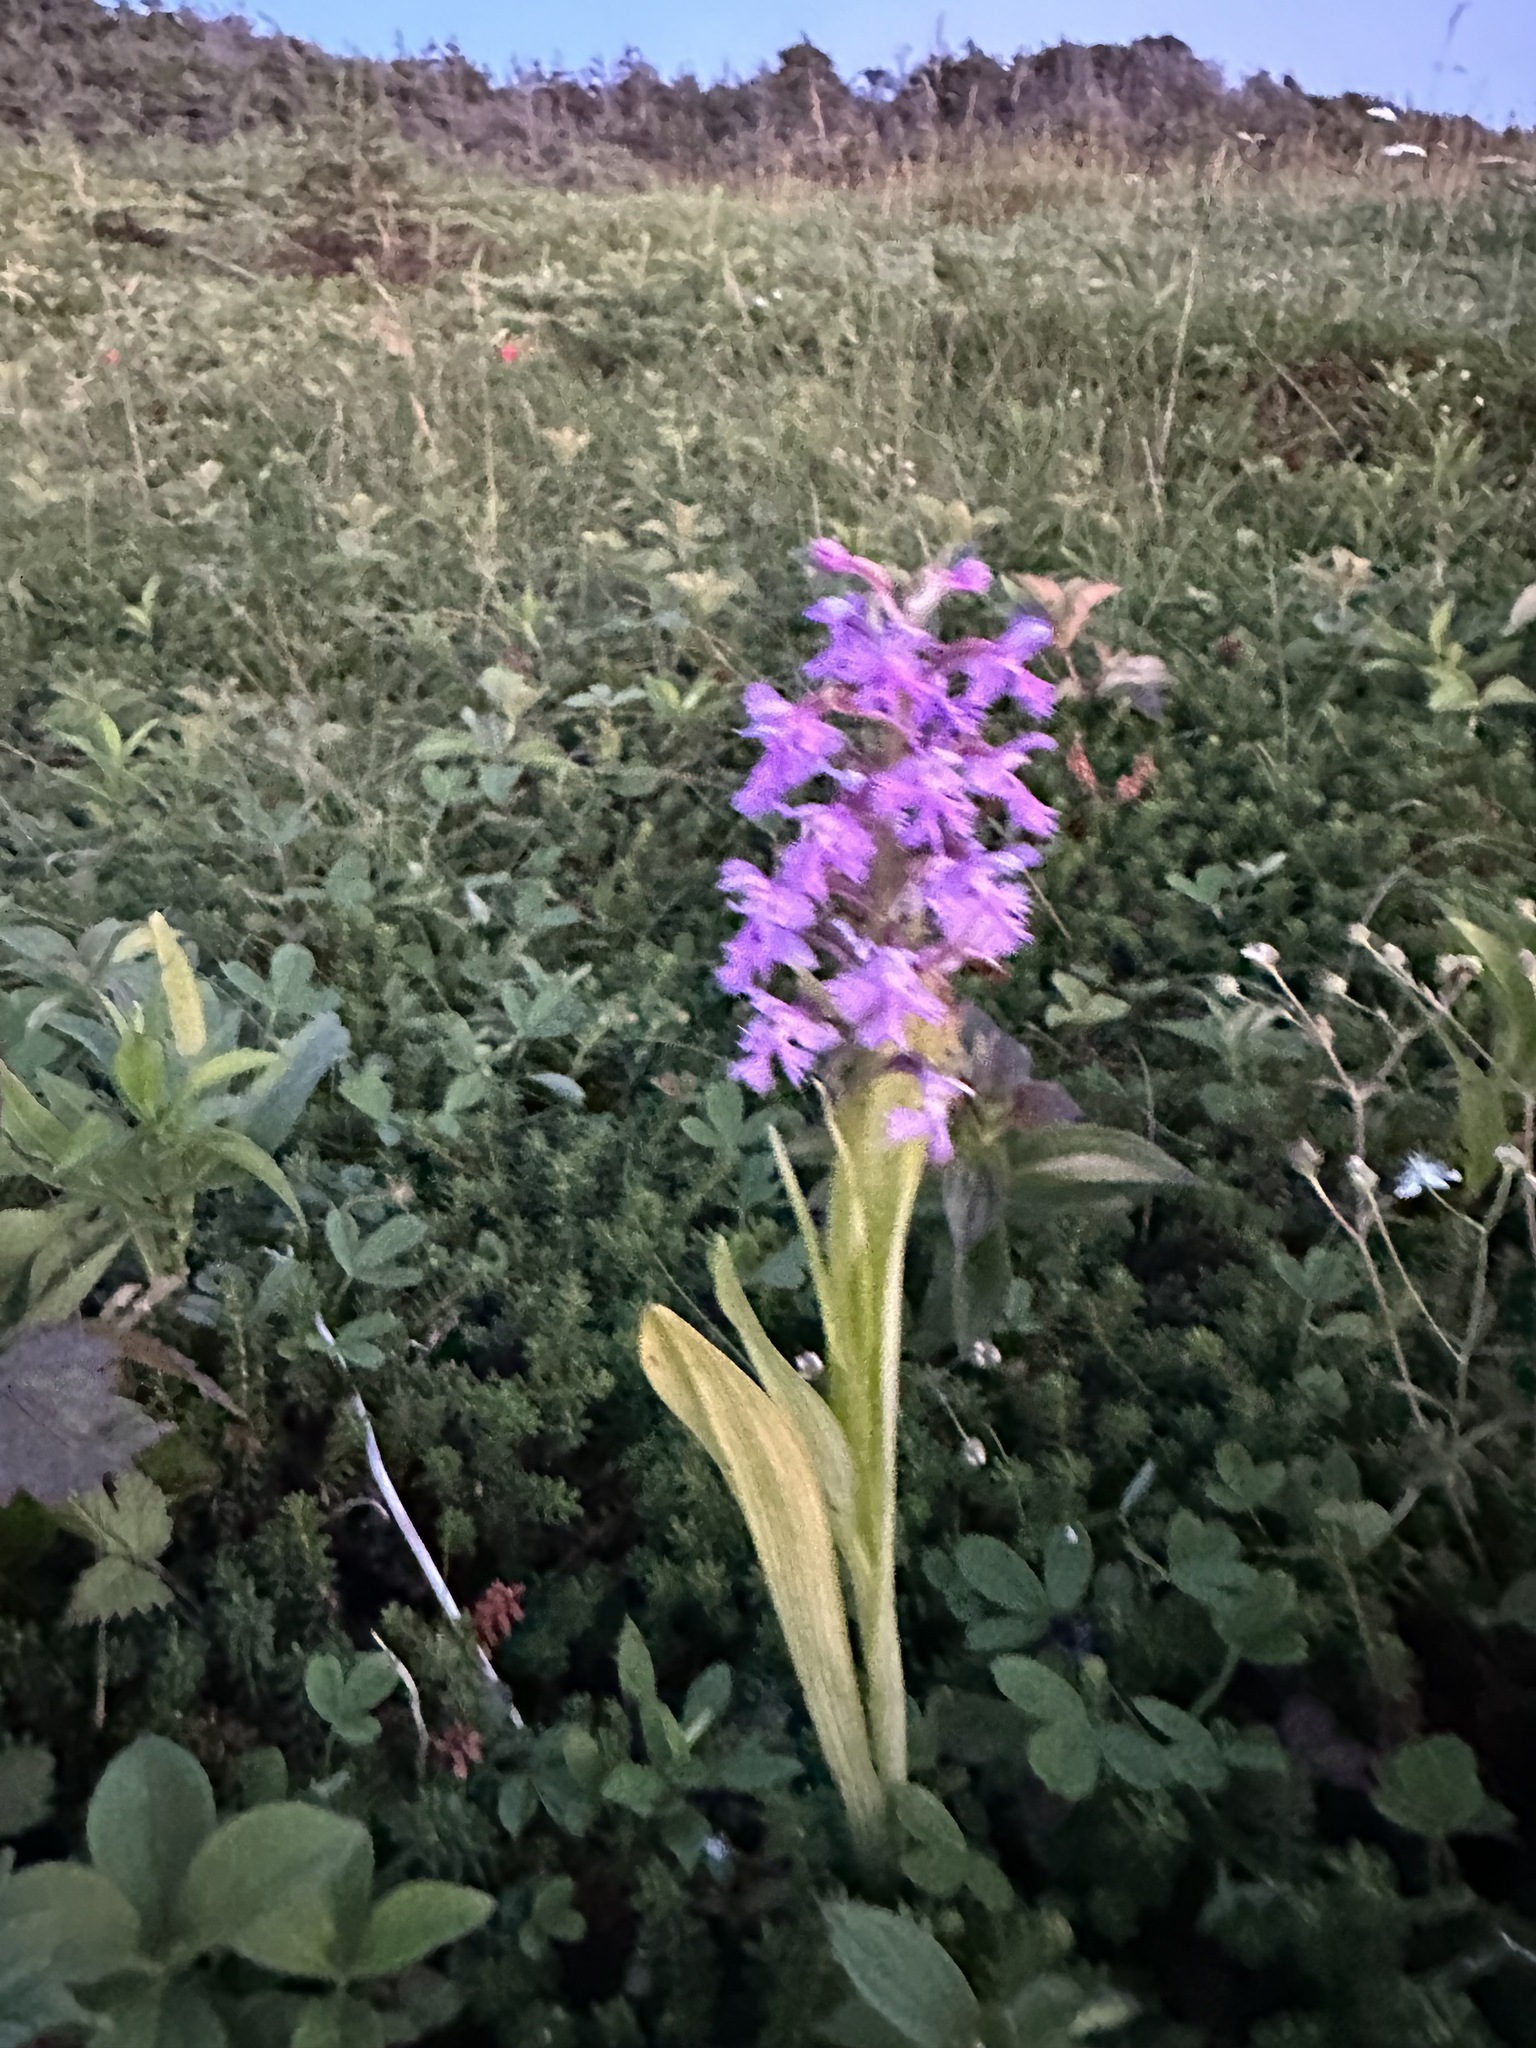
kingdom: Plantae
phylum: Tracheophyta
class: Liliopsida
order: Asparagales
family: Orchidaceae
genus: Platanthera
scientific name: Platanthera psycodes
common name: Lesser purple fringed orchid
